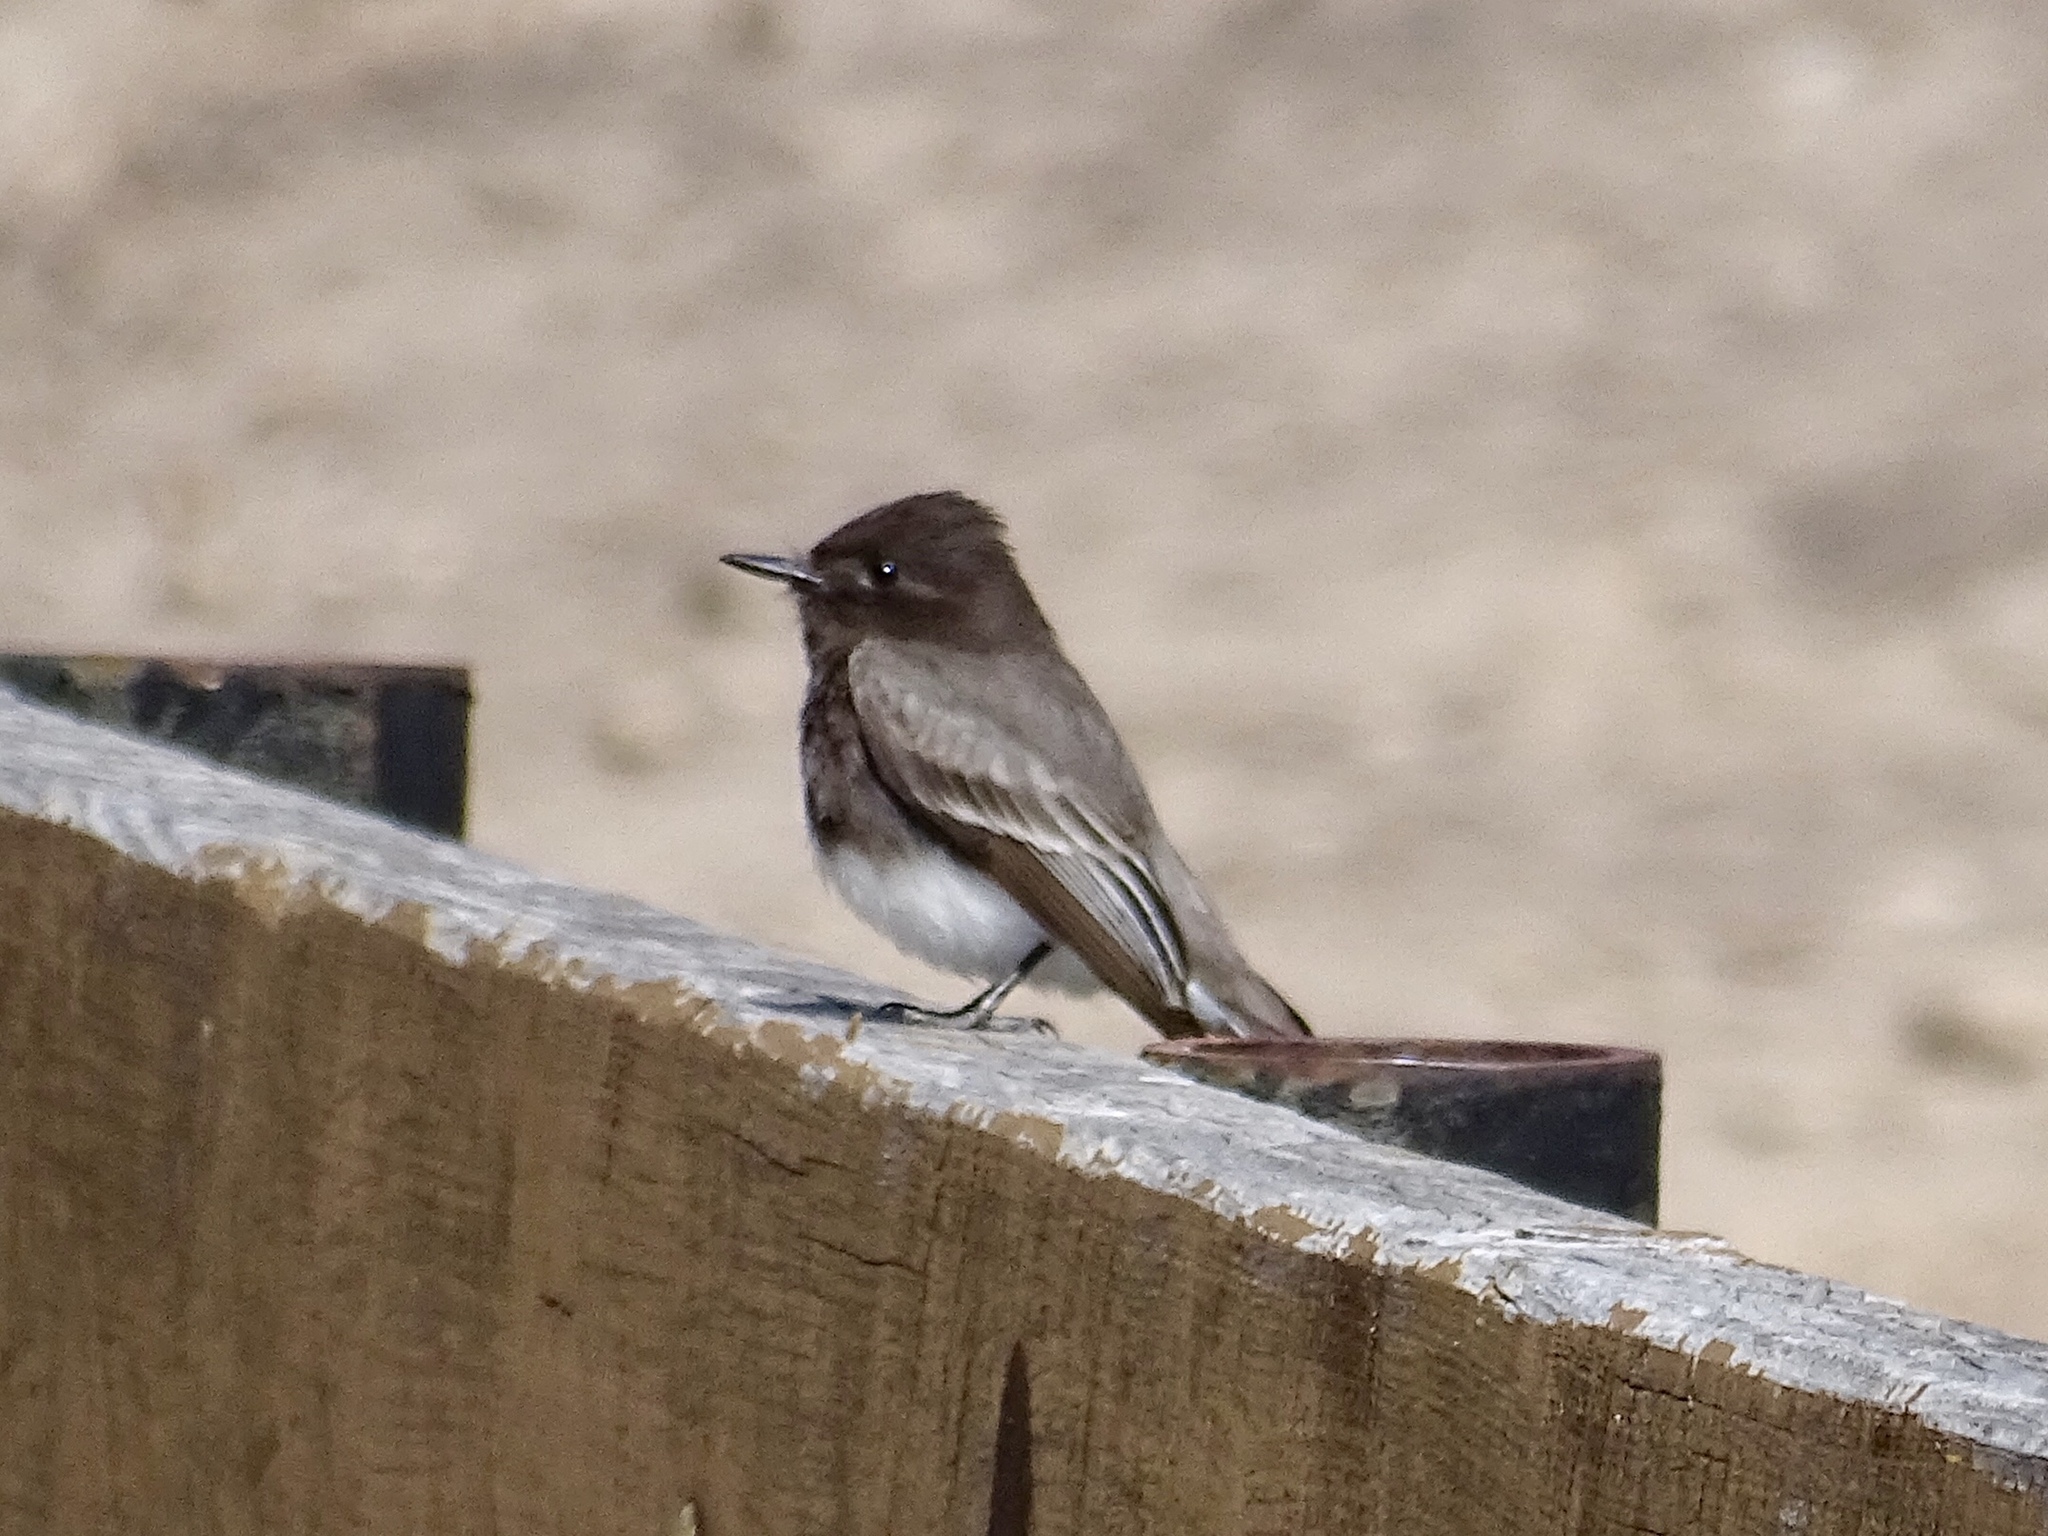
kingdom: Animalia
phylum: Chordata
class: Aves
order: Passeriformes
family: Tyrannidae
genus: Sayornis
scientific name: Sayornis nigricans
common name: Black phoebe
